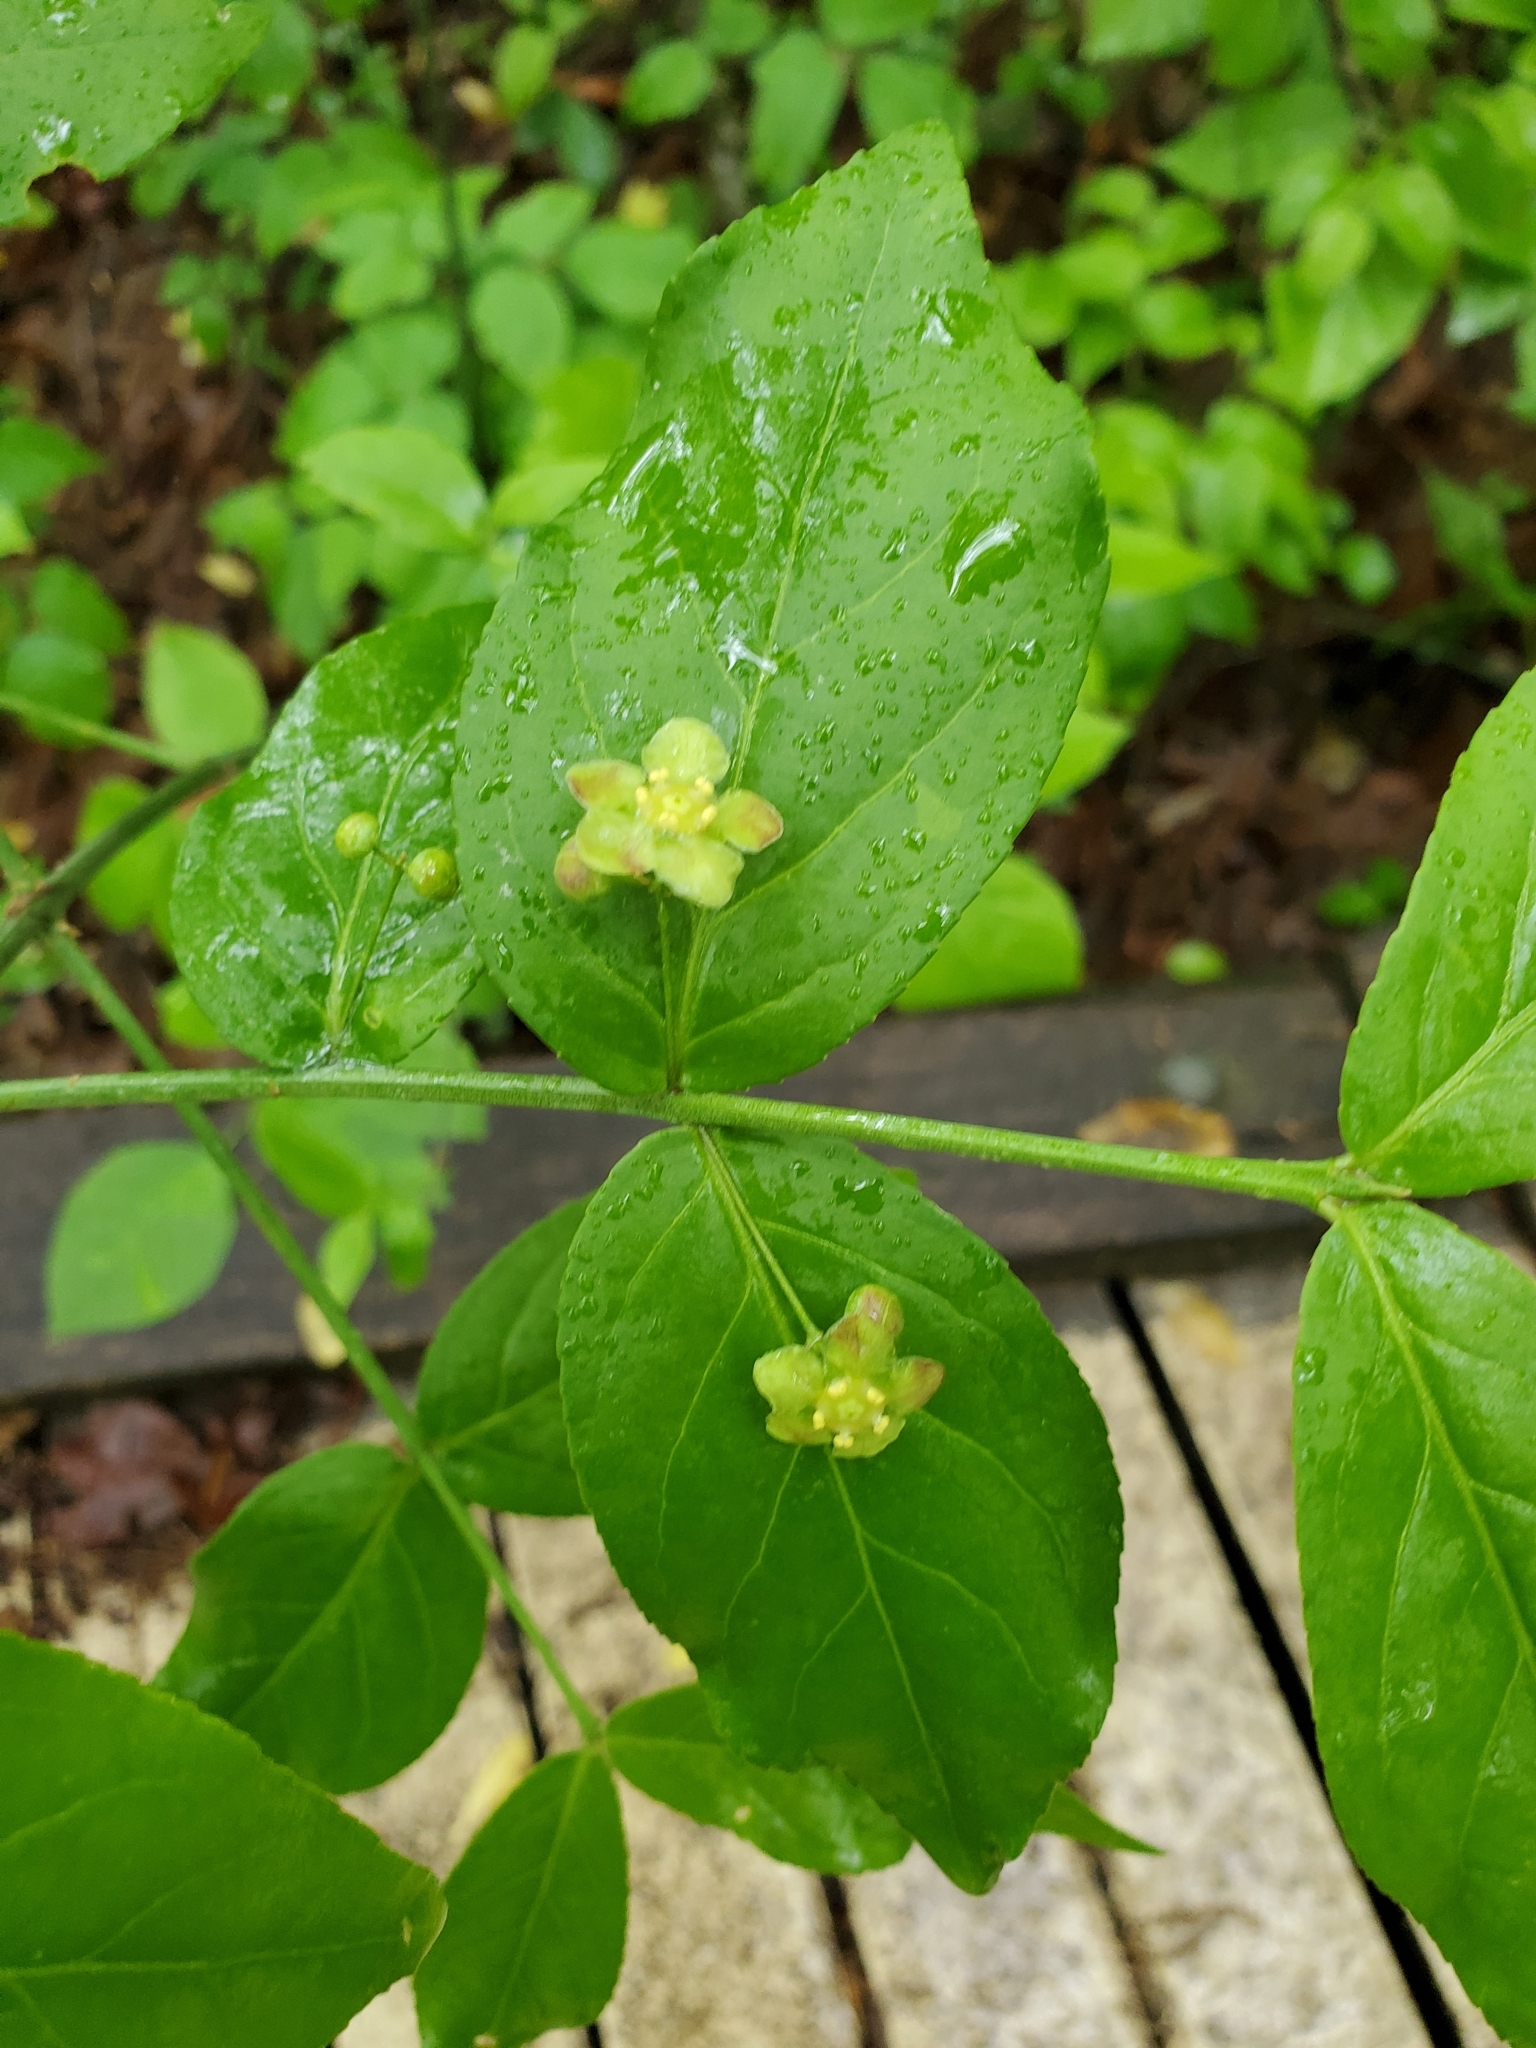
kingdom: Plantae
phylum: Tracheophyta
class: Magnoliopsida
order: Celastrales
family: Celastraceae
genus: Euonymus
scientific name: Euonymus americanus
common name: Bursting-heart
